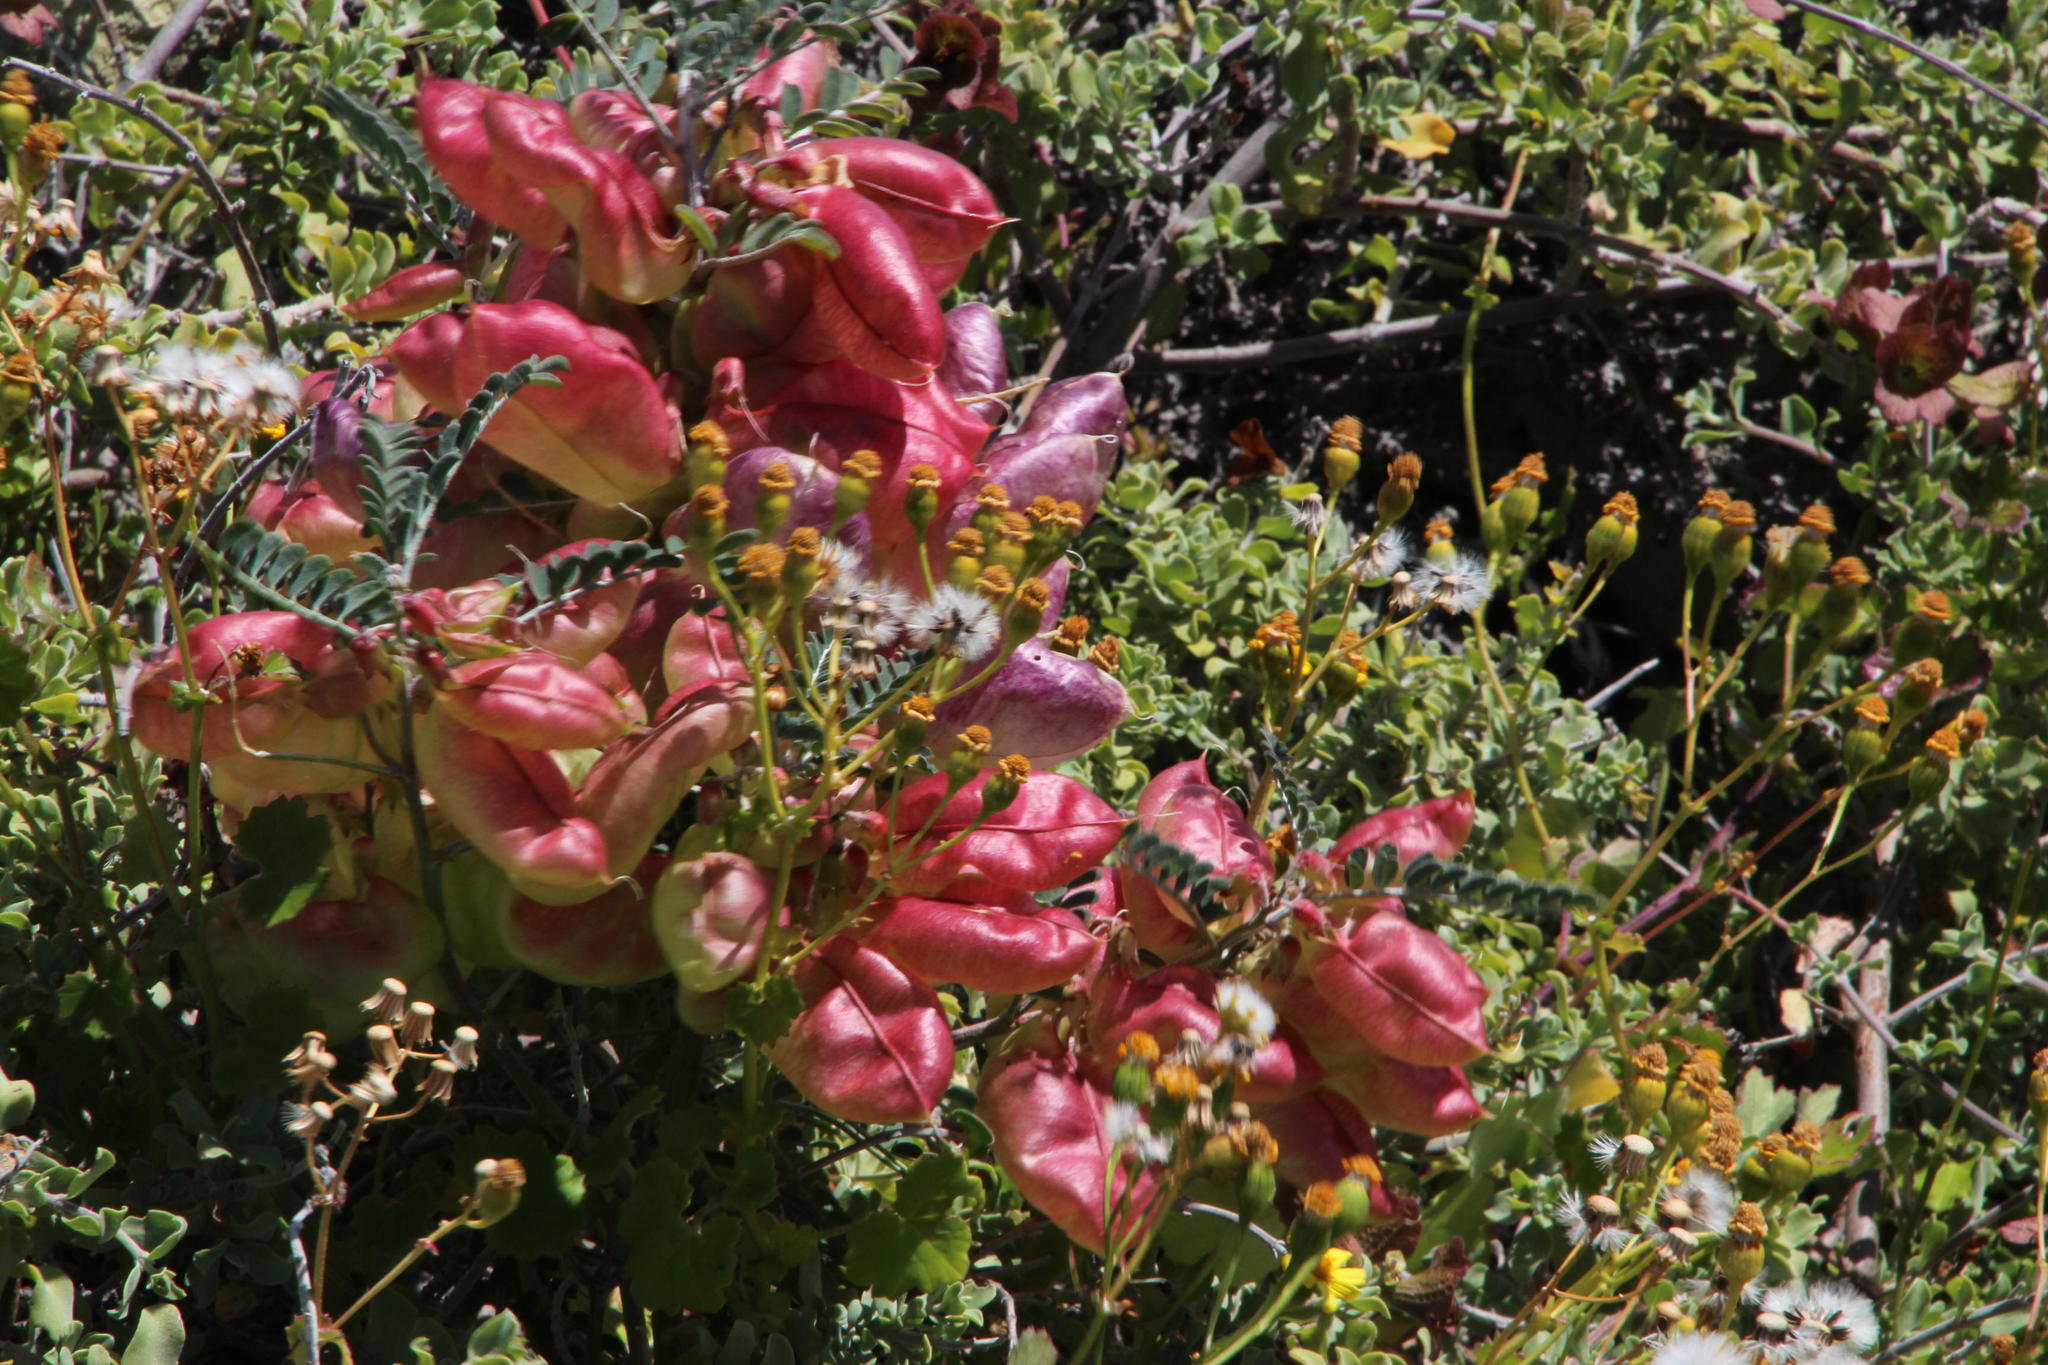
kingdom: Plantae
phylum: Tracheophyta
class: Magnoliopsida
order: Fabales
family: Fabaceae
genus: Lessertia
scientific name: Lessertia frutescens
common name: Balloon-pea
